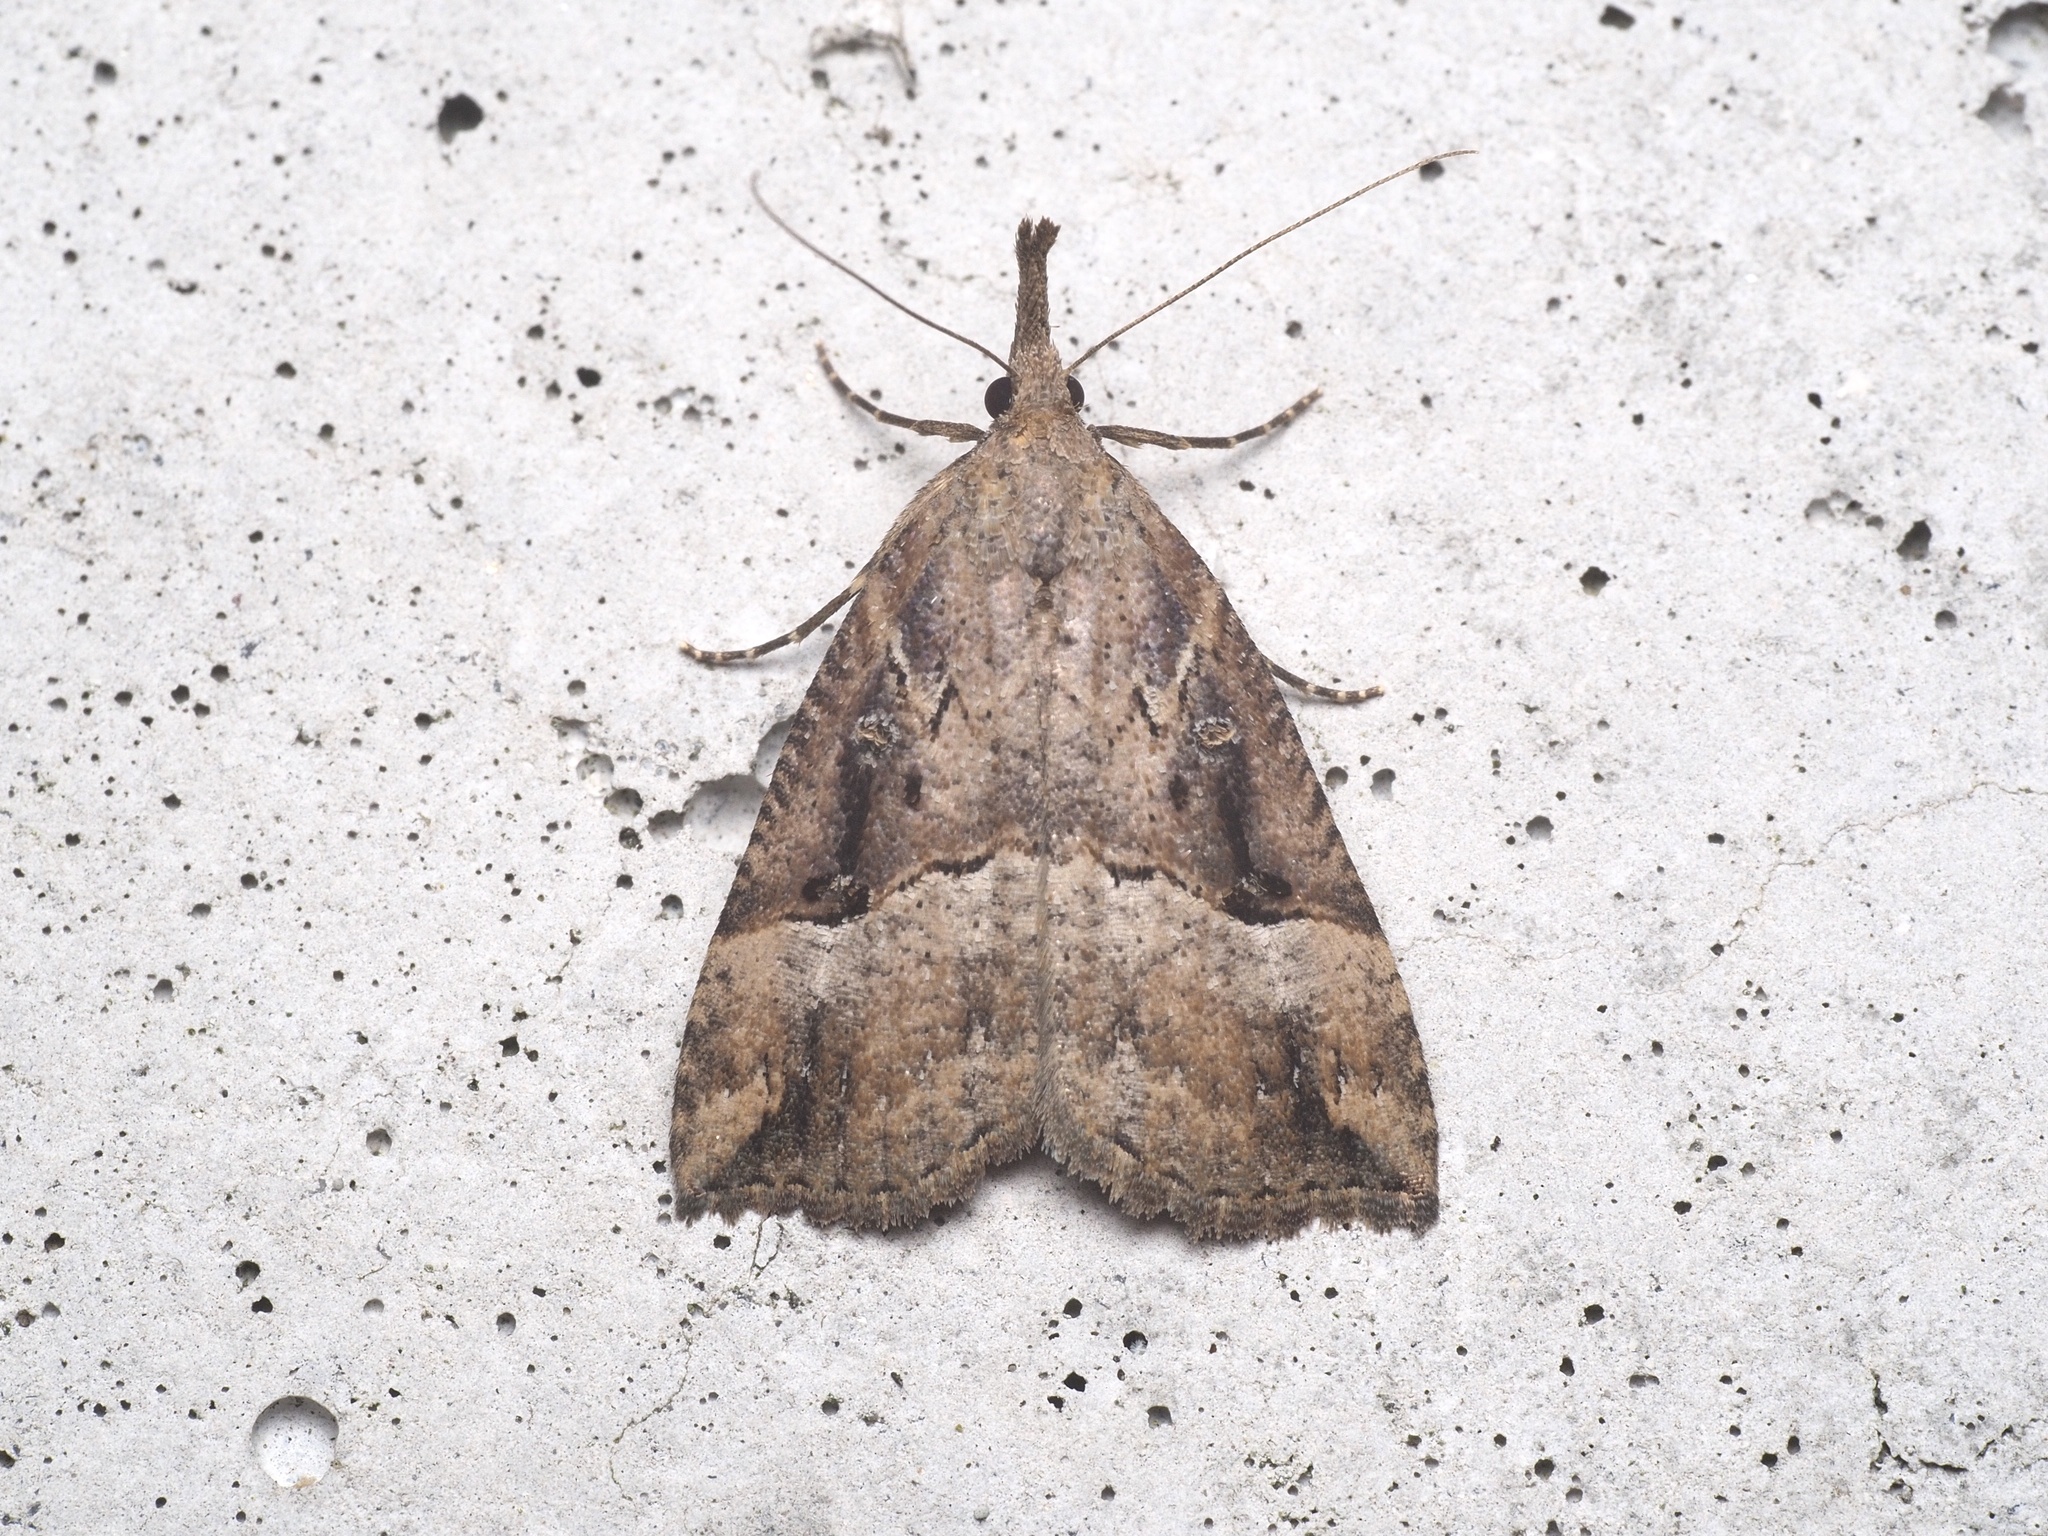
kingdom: Animalia
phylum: Arthropoda
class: Insecta
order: Lepidoptera
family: Erebidae
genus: Hypena
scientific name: Hypena rostralis
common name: Buttoned snout
